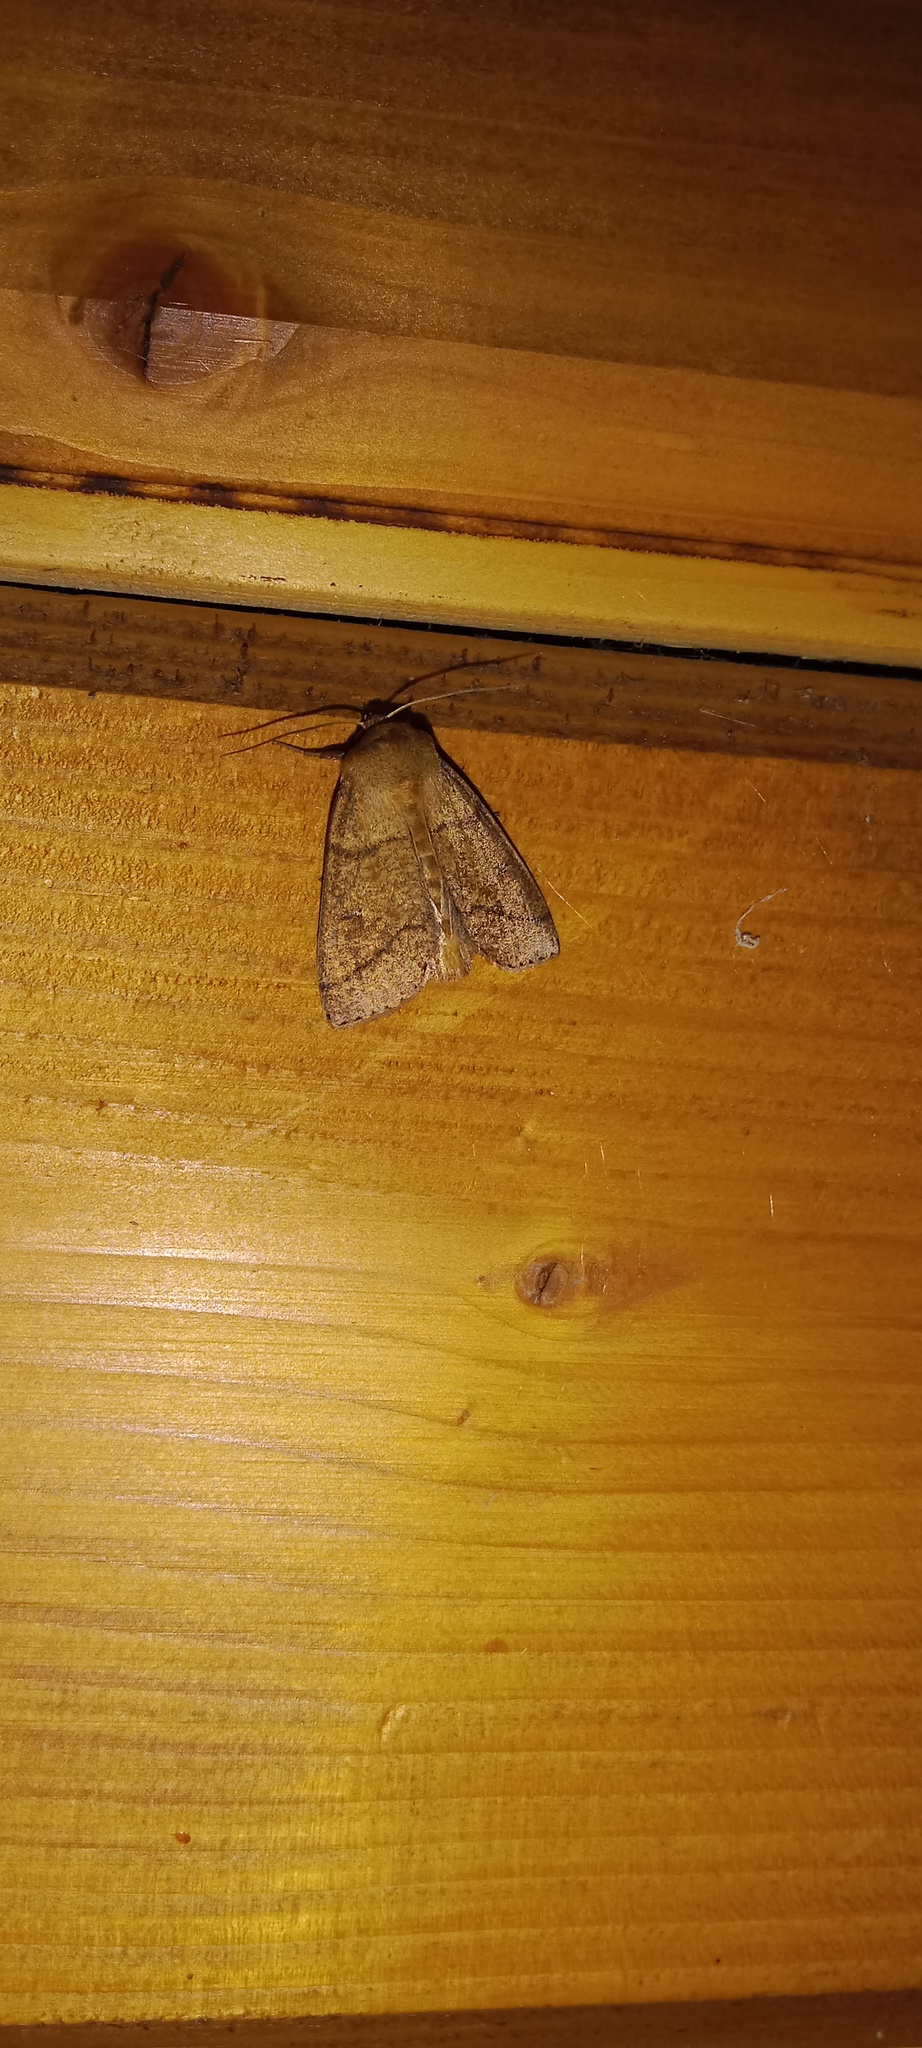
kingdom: Animalia
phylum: Arthropoda
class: Insecta
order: Lepidoptera
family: Noctuidae
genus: Mythimna
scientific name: Mythimna turca
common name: Double line
